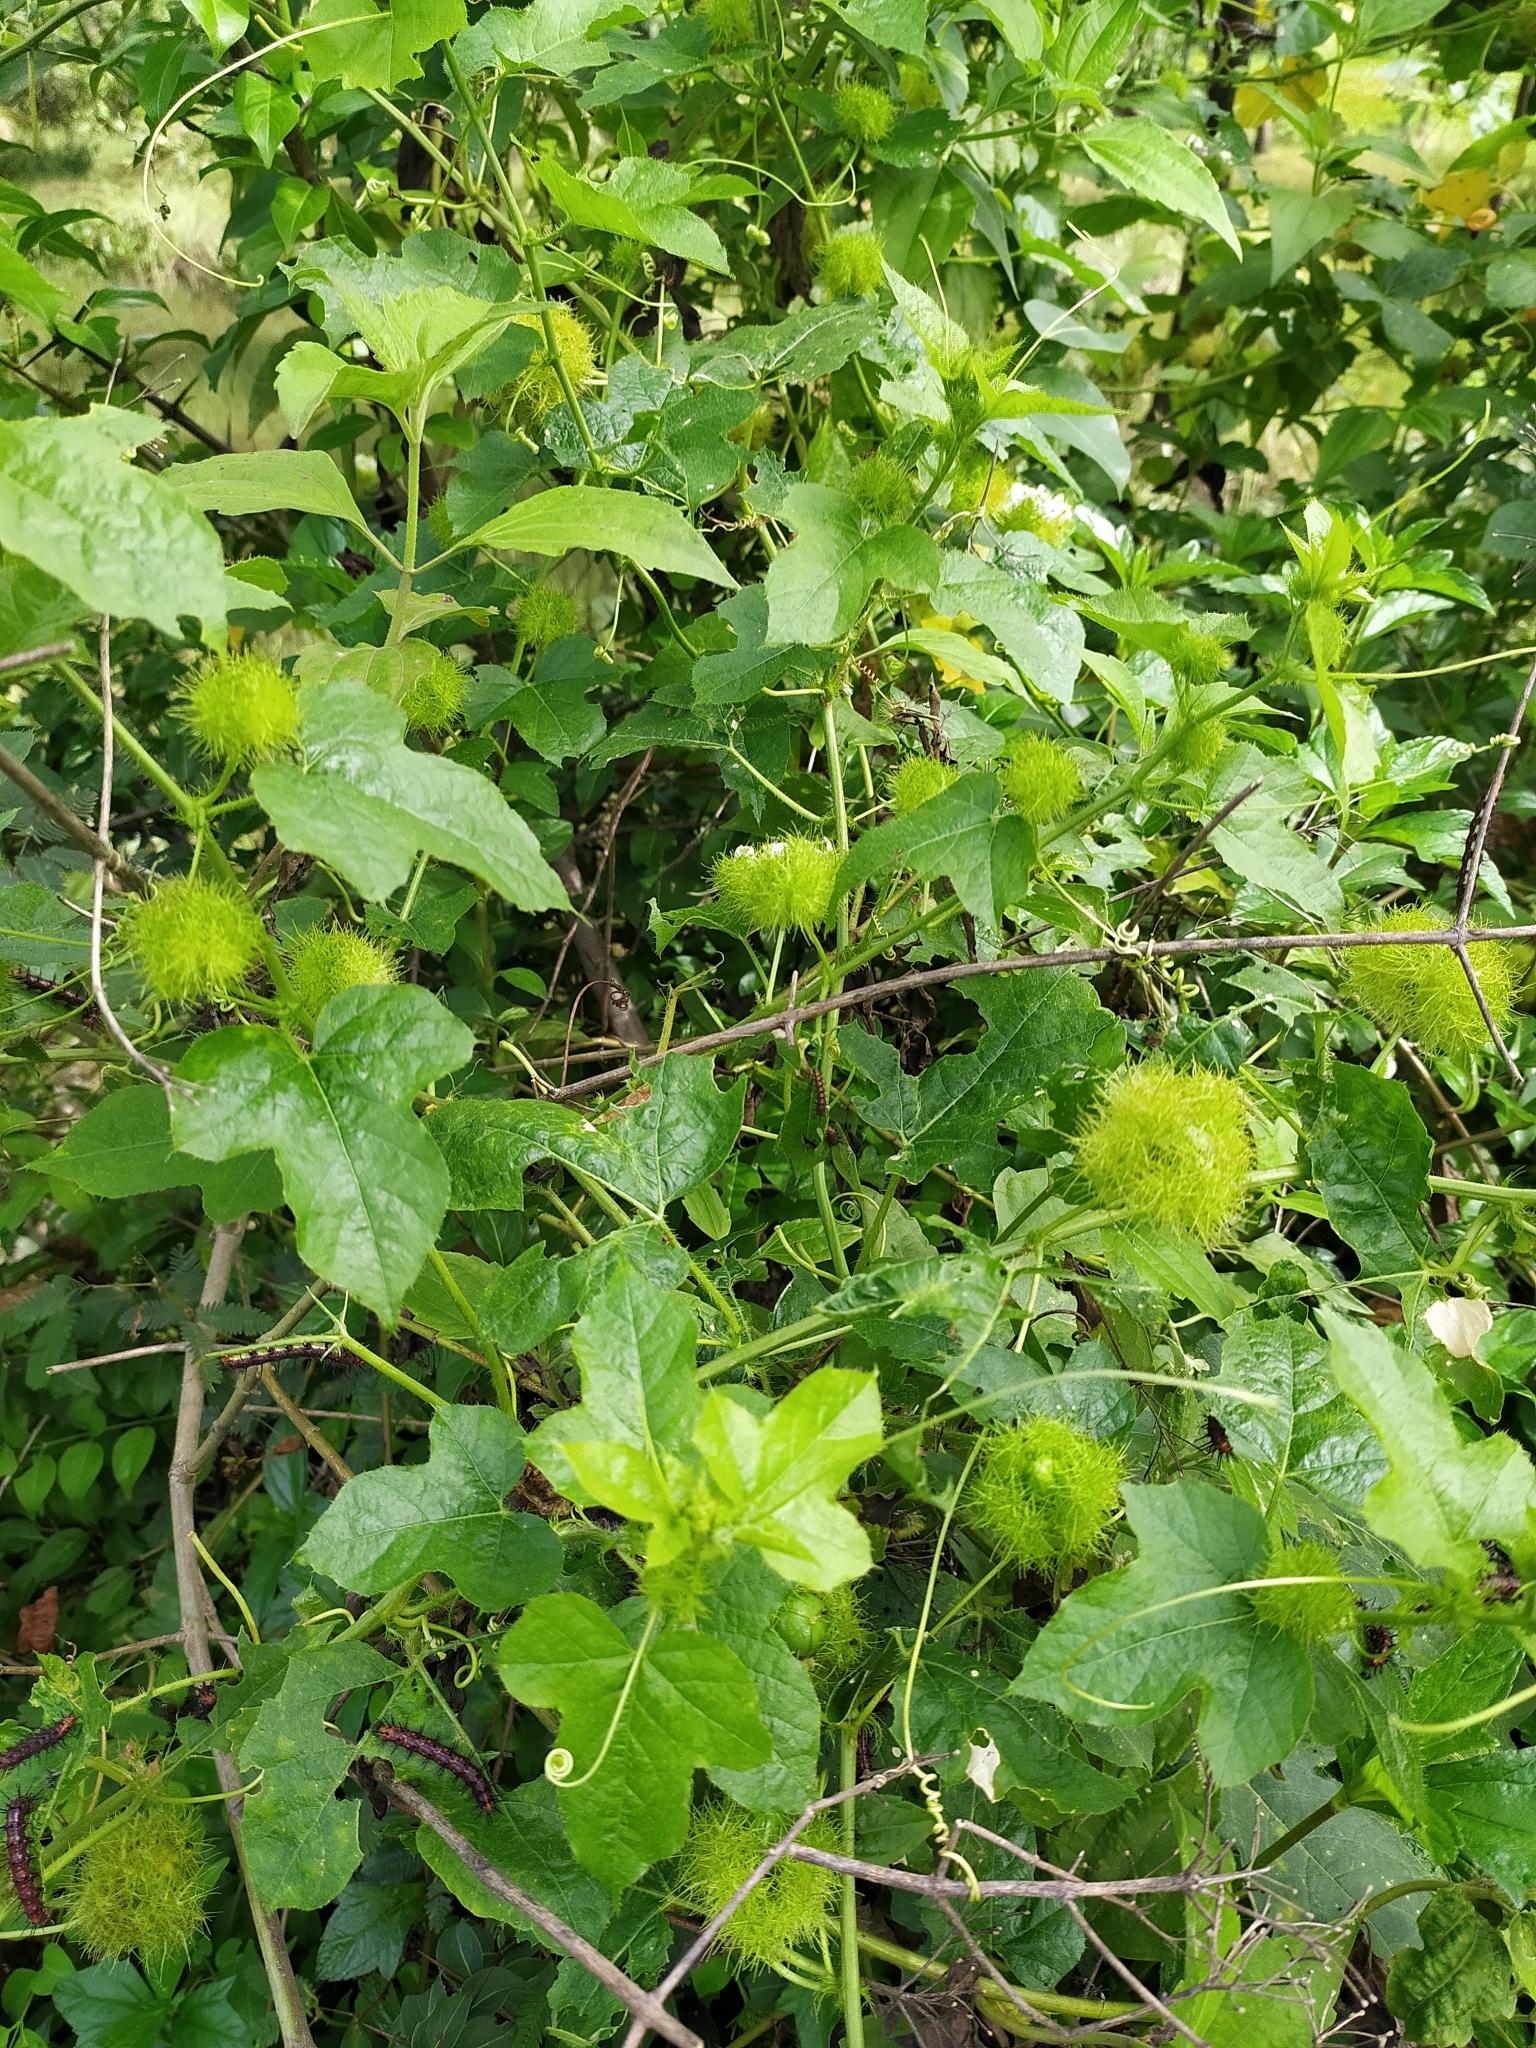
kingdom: Plantae
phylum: Tracheophyta
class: Magnoliopsida
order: Malpighiales
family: Passifloraceae
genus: Passiflora
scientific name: Passiflora foetida
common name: Fetid passionflower
